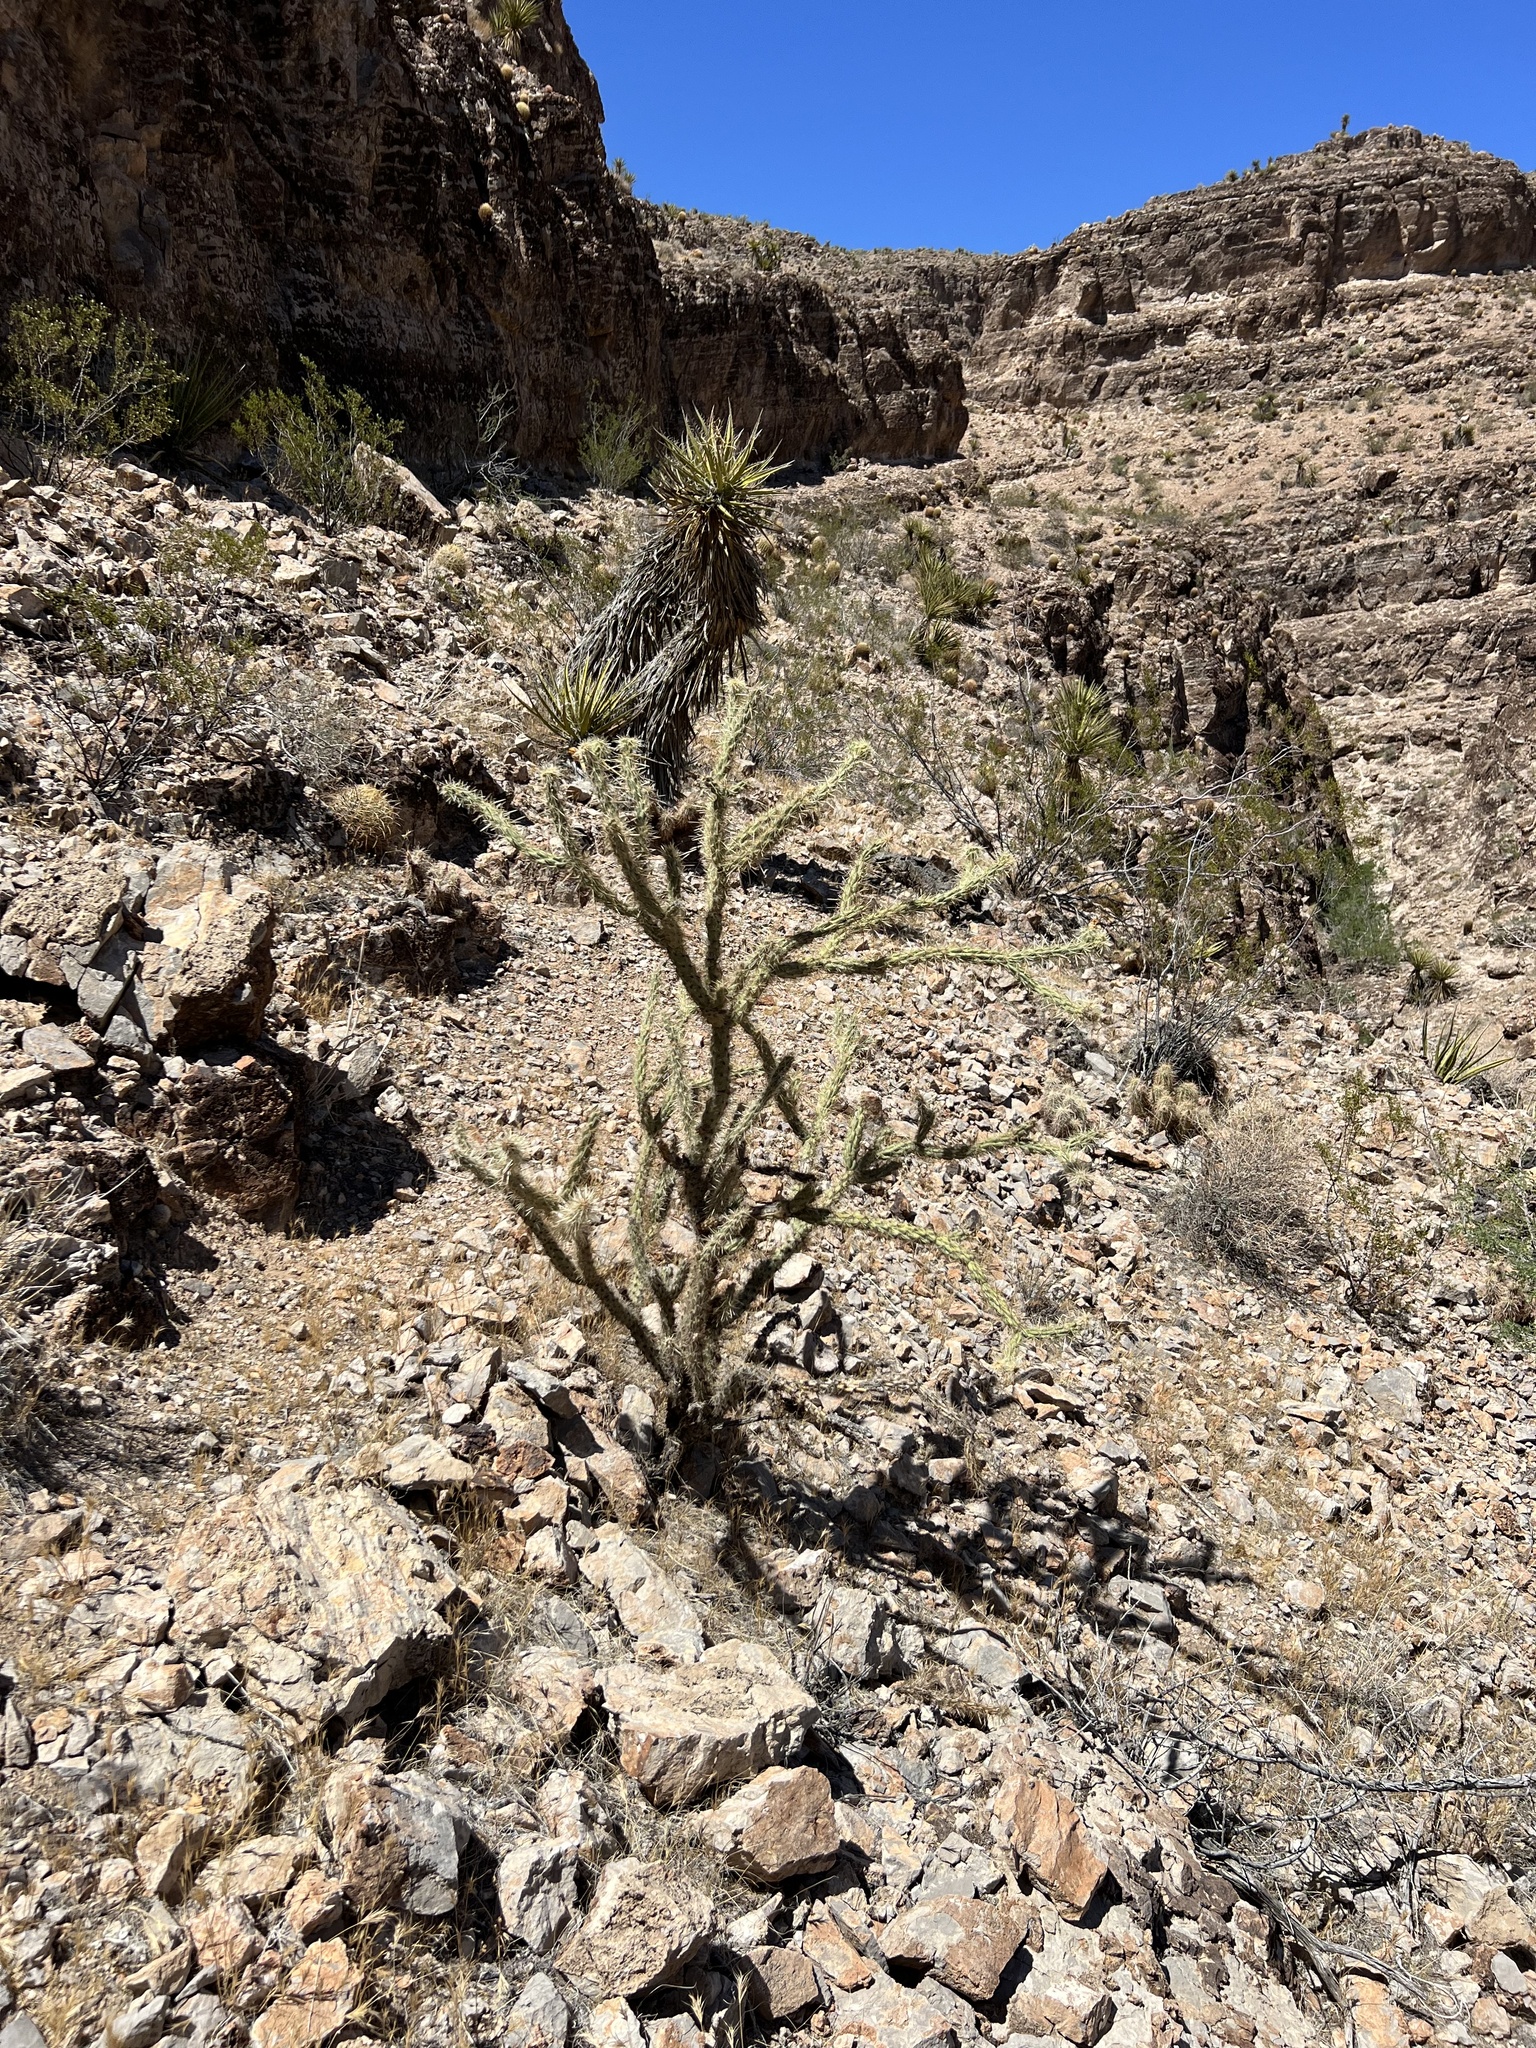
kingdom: Plantae
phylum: Tracheophyta
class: Magnoliopsida
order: Caryophyllales
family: Cactaceae
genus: Cylindropuntia
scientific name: Cylindropuntia acanthocarpa
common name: Buckhorn cholla
